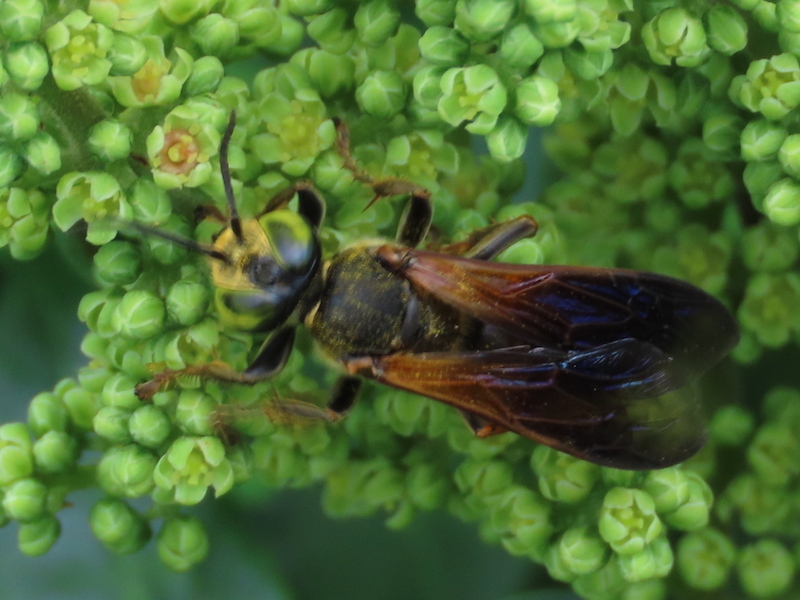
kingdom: Animalia
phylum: Arthropoda
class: Insecta
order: Hymenoptera
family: Crabronidae
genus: Tachytes
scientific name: Tachytes guatemalensis
